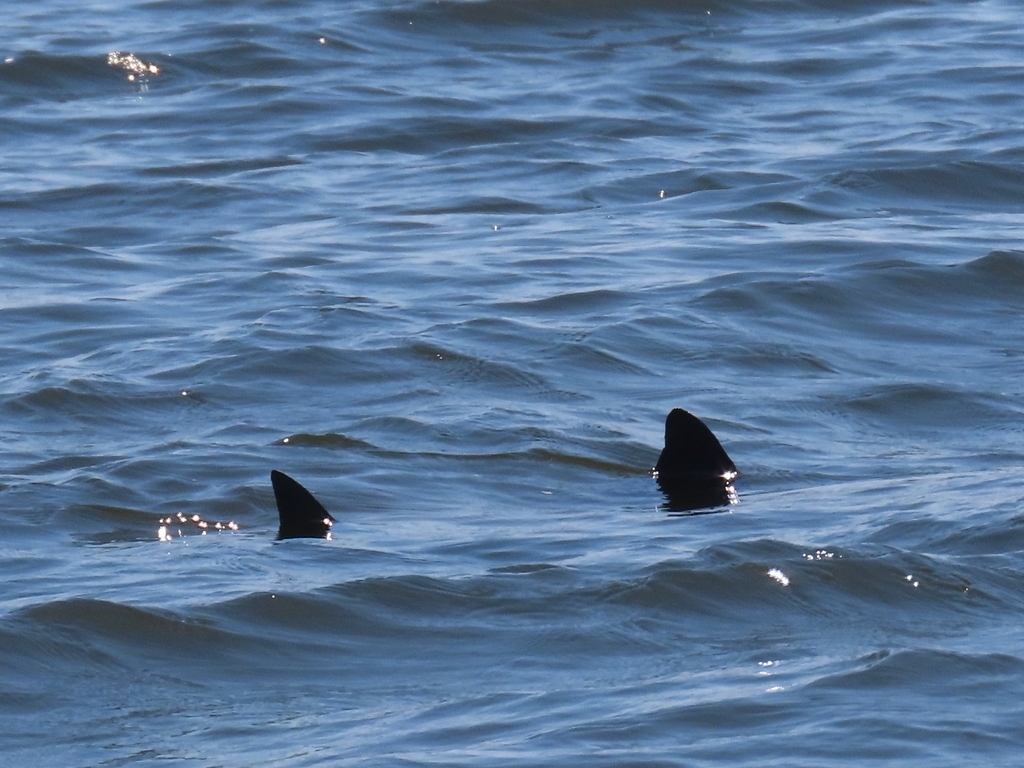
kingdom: Animalia
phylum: Chordata
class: Elasmobranchii
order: Myliobatiformes
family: Myliobatidae
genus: Rhinoptera
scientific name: Rhinoptera bonasus
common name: Cownose ray
